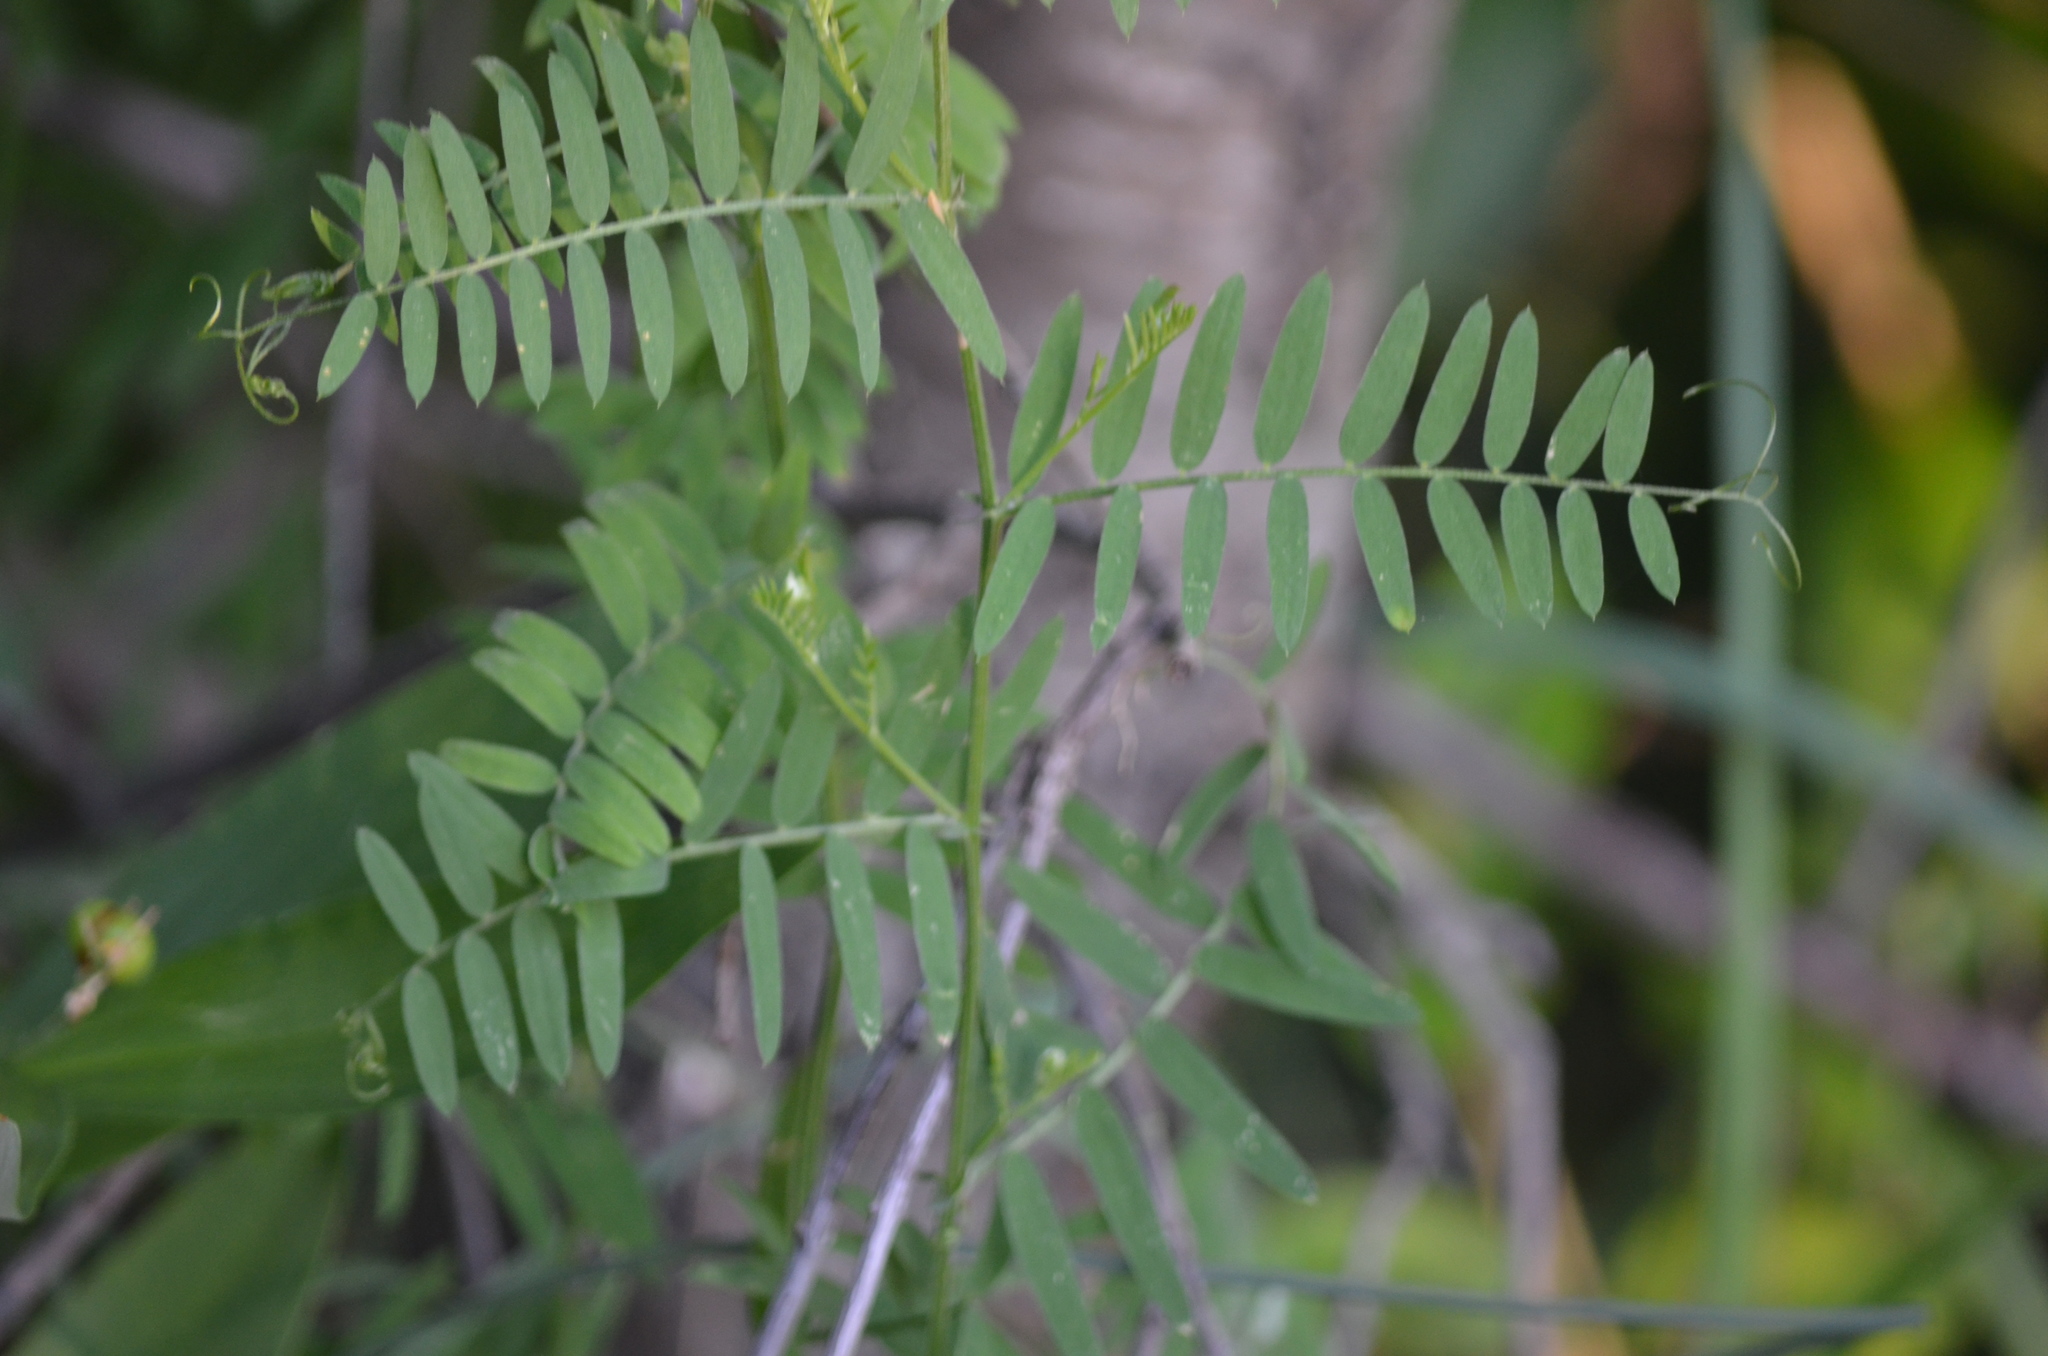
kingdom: Plantae
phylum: Tracheophyta
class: Magnoliopsida
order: Fabales
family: Fabaceae
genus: Vicia
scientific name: Vicia cracca
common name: Bird vetch
